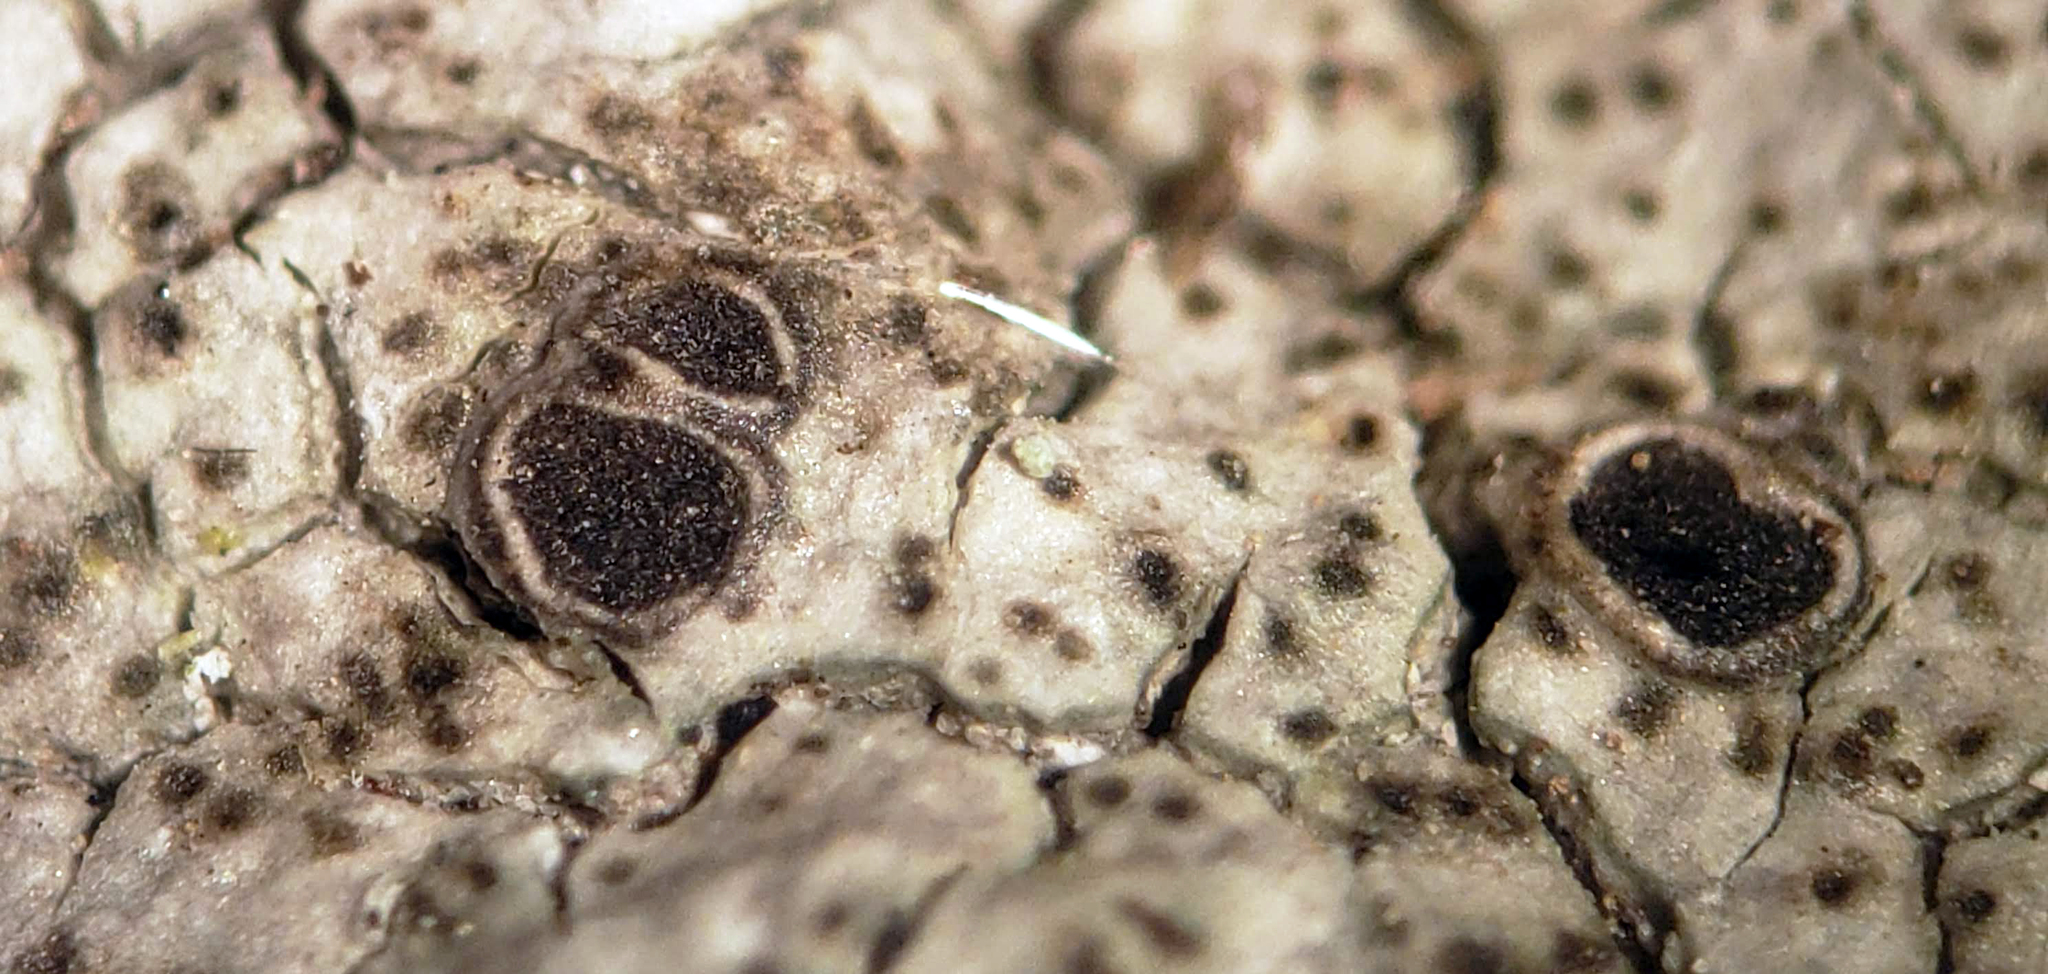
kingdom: Fungi
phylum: Ascomycota
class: Lecanoromycetes
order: Pertusariales
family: Megasporaceae
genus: Aspicilia
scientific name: Aspicilia cinerea
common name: Cinder lichen
